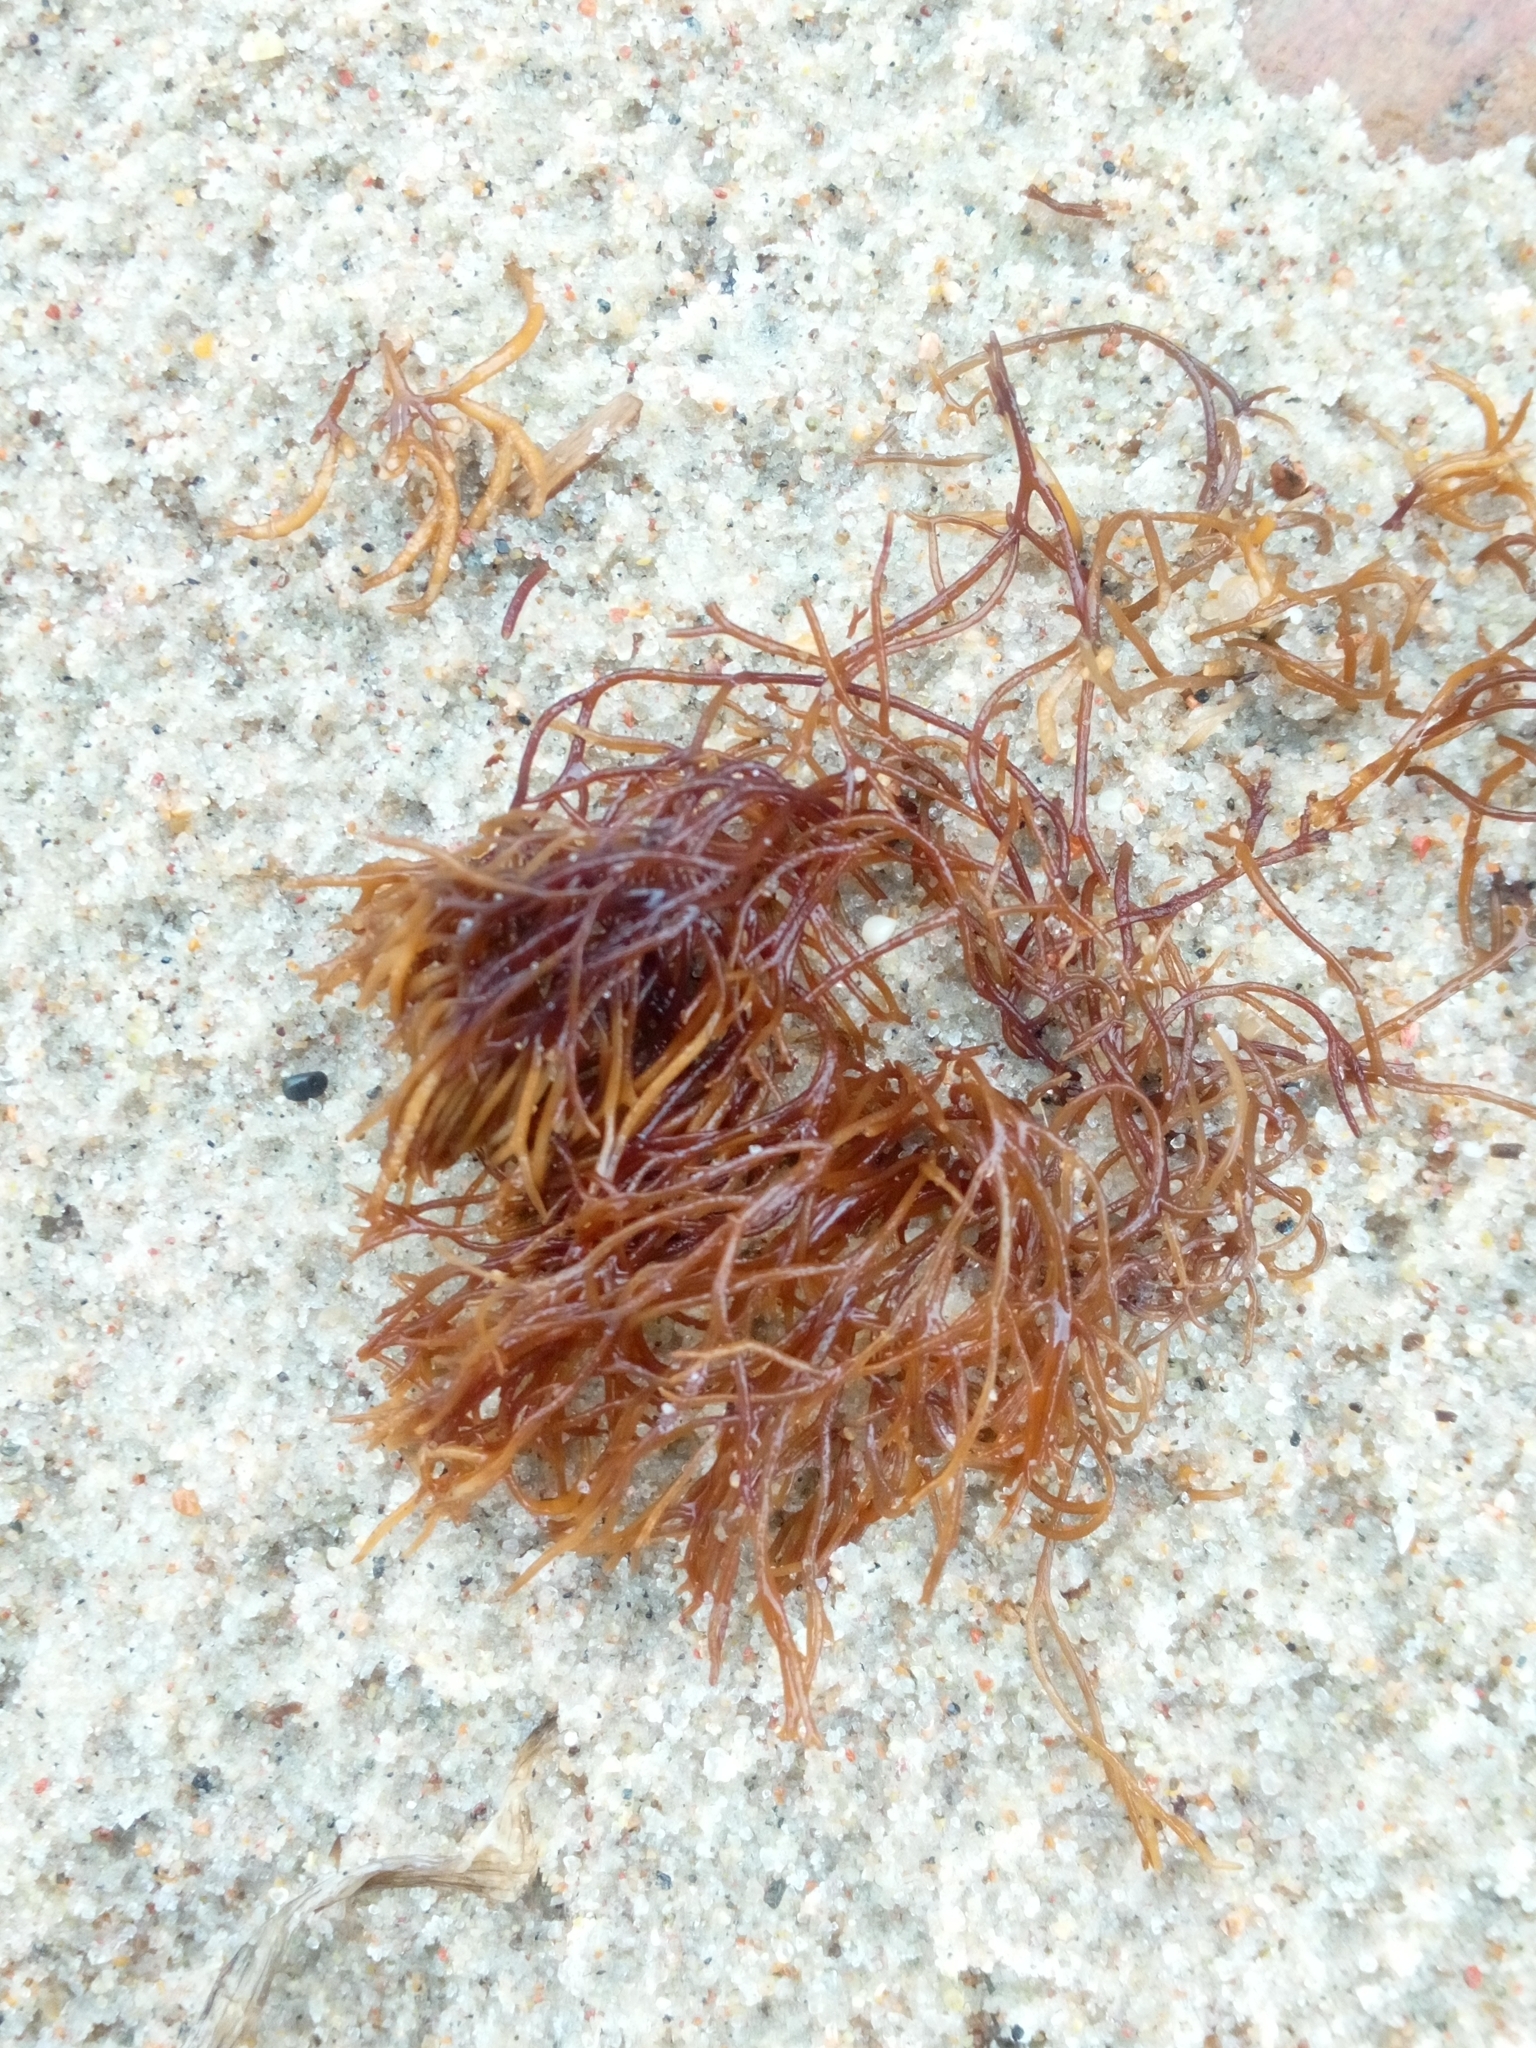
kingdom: Plantae
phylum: Rhodophyta
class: Florideophyceae
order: Gigartinales
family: Furcellariaceae
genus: Furcellaria
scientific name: Furcellaria lumbricalis
